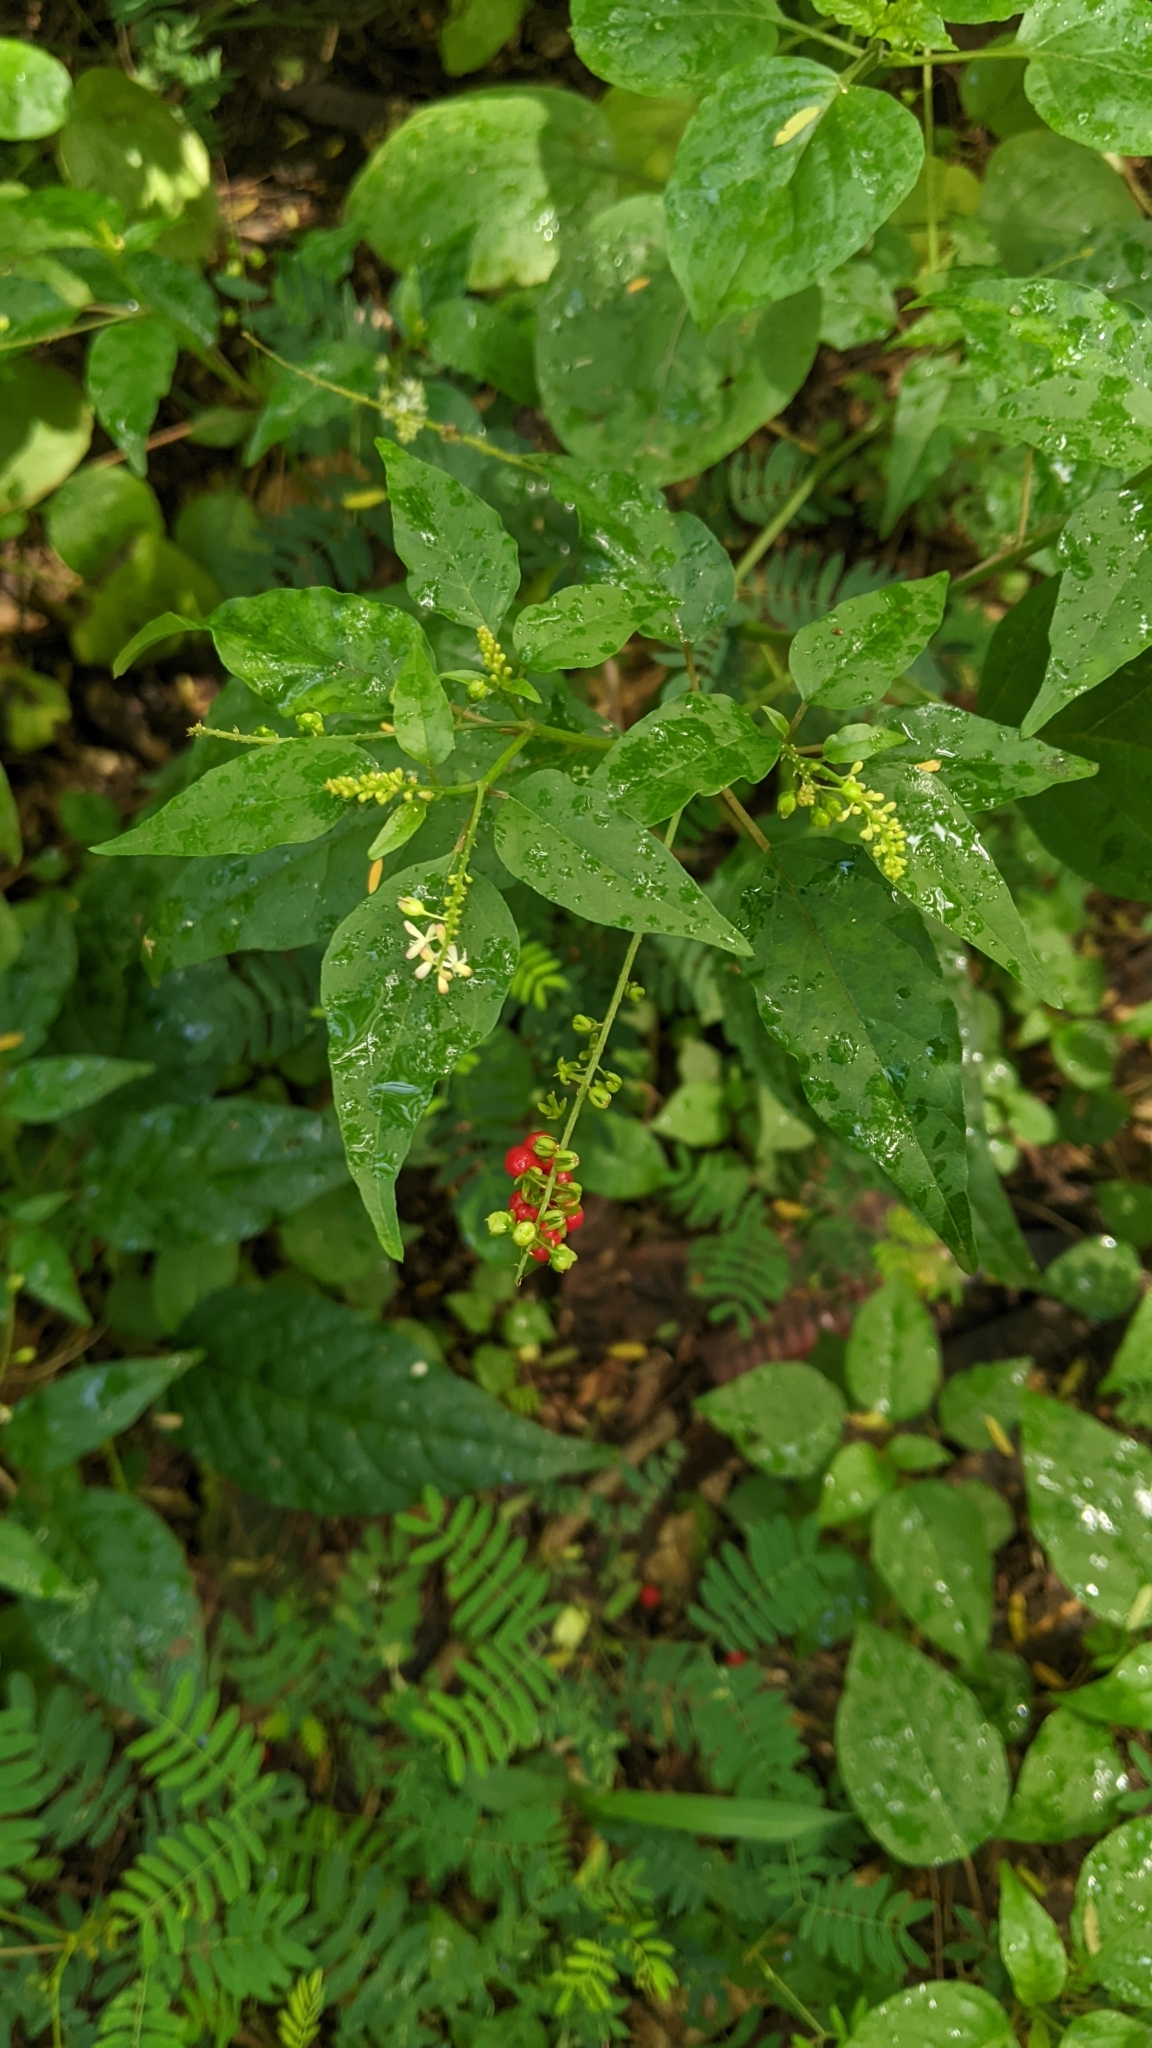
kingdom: Plantae
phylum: Tracheophyta
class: Magnoliopsida
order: Caryophyllales
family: Phytolaccaceae
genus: Rivina
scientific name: Rivina humilis
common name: Rougeplant
